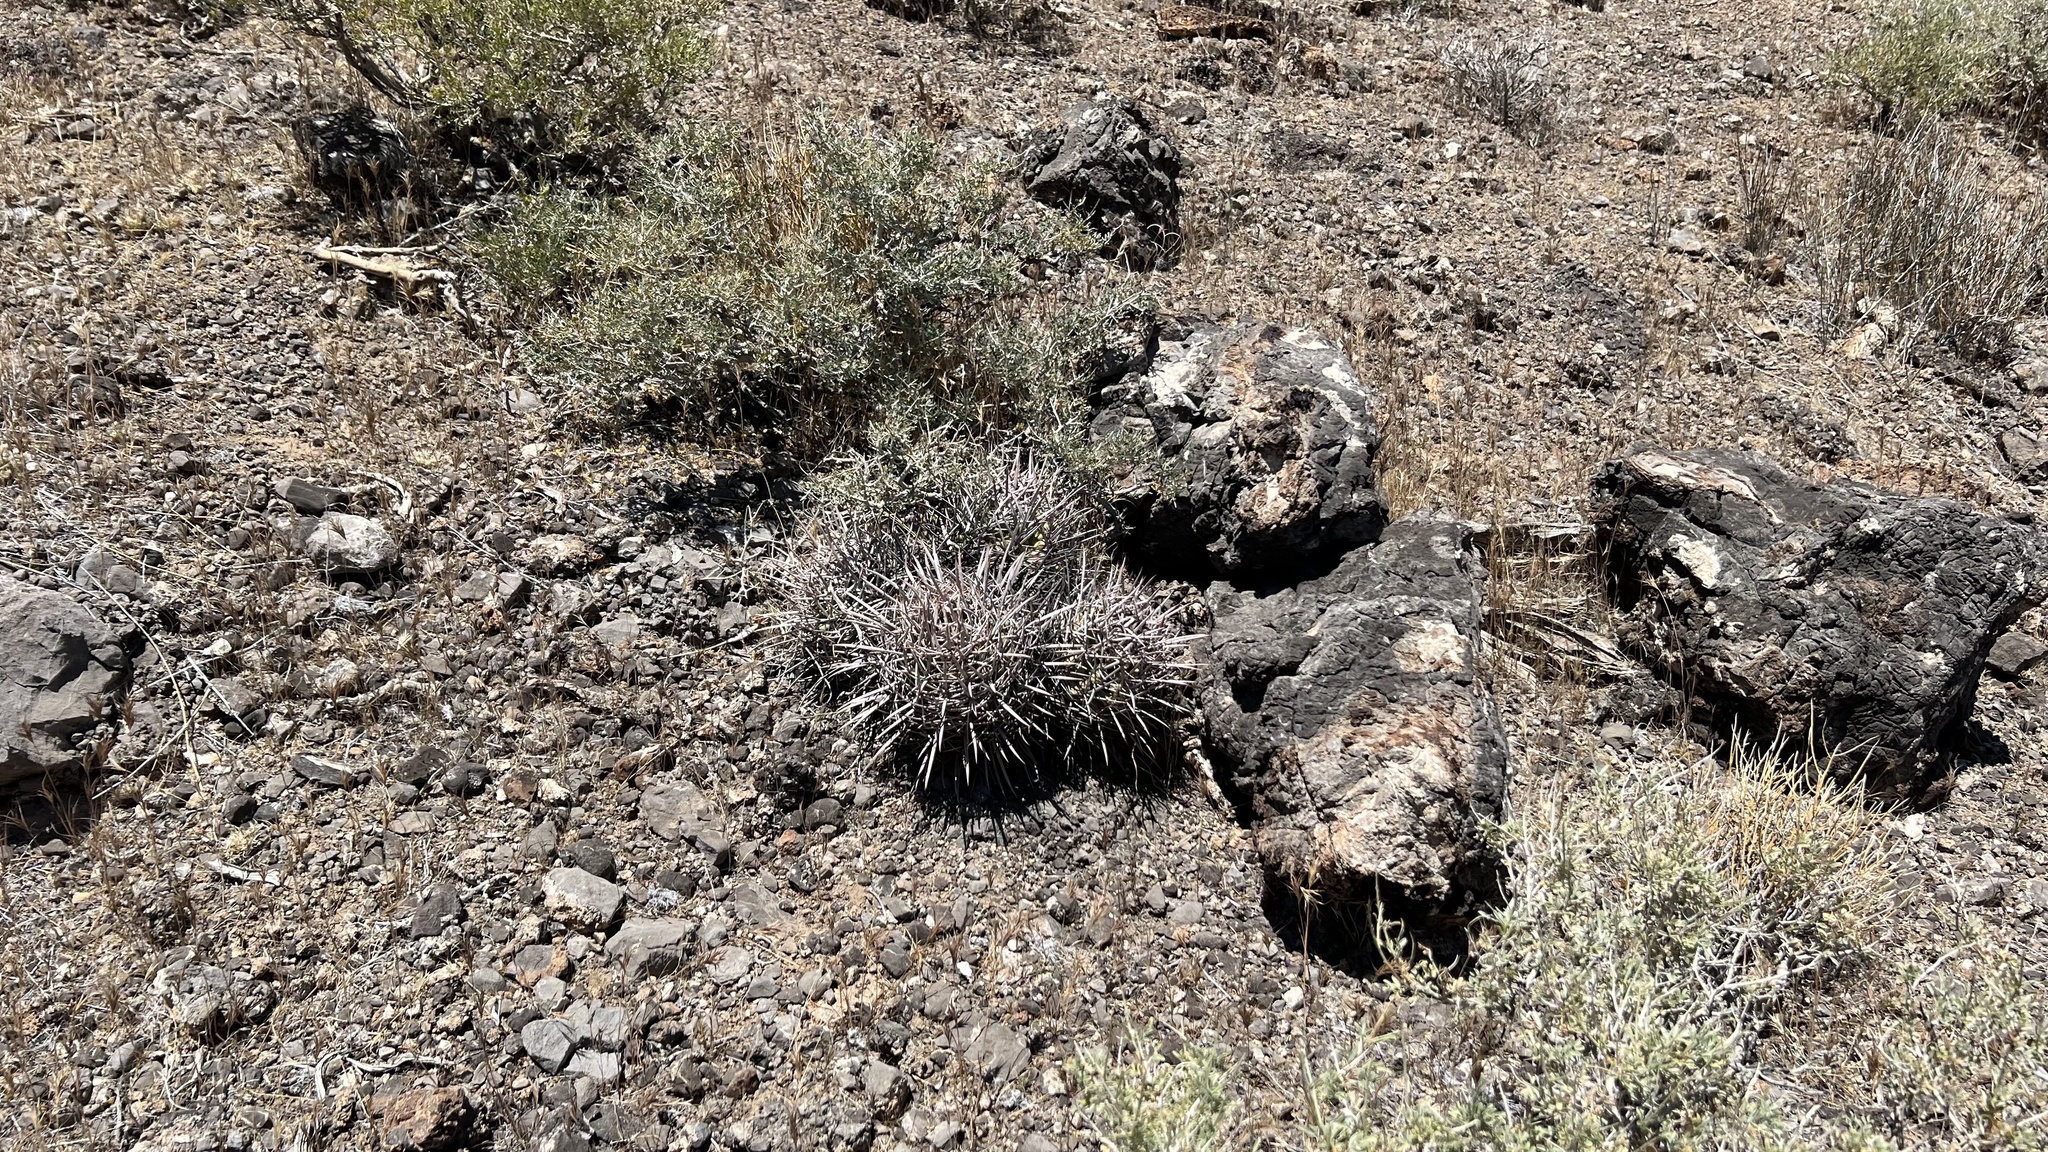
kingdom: Plantae
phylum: Tracheophyta
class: Magnoliopsida
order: Caryophyllales
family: Cactaceae
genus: Echinocactus
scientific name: Echinocactus polycephalus
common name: Cottontop cactus
